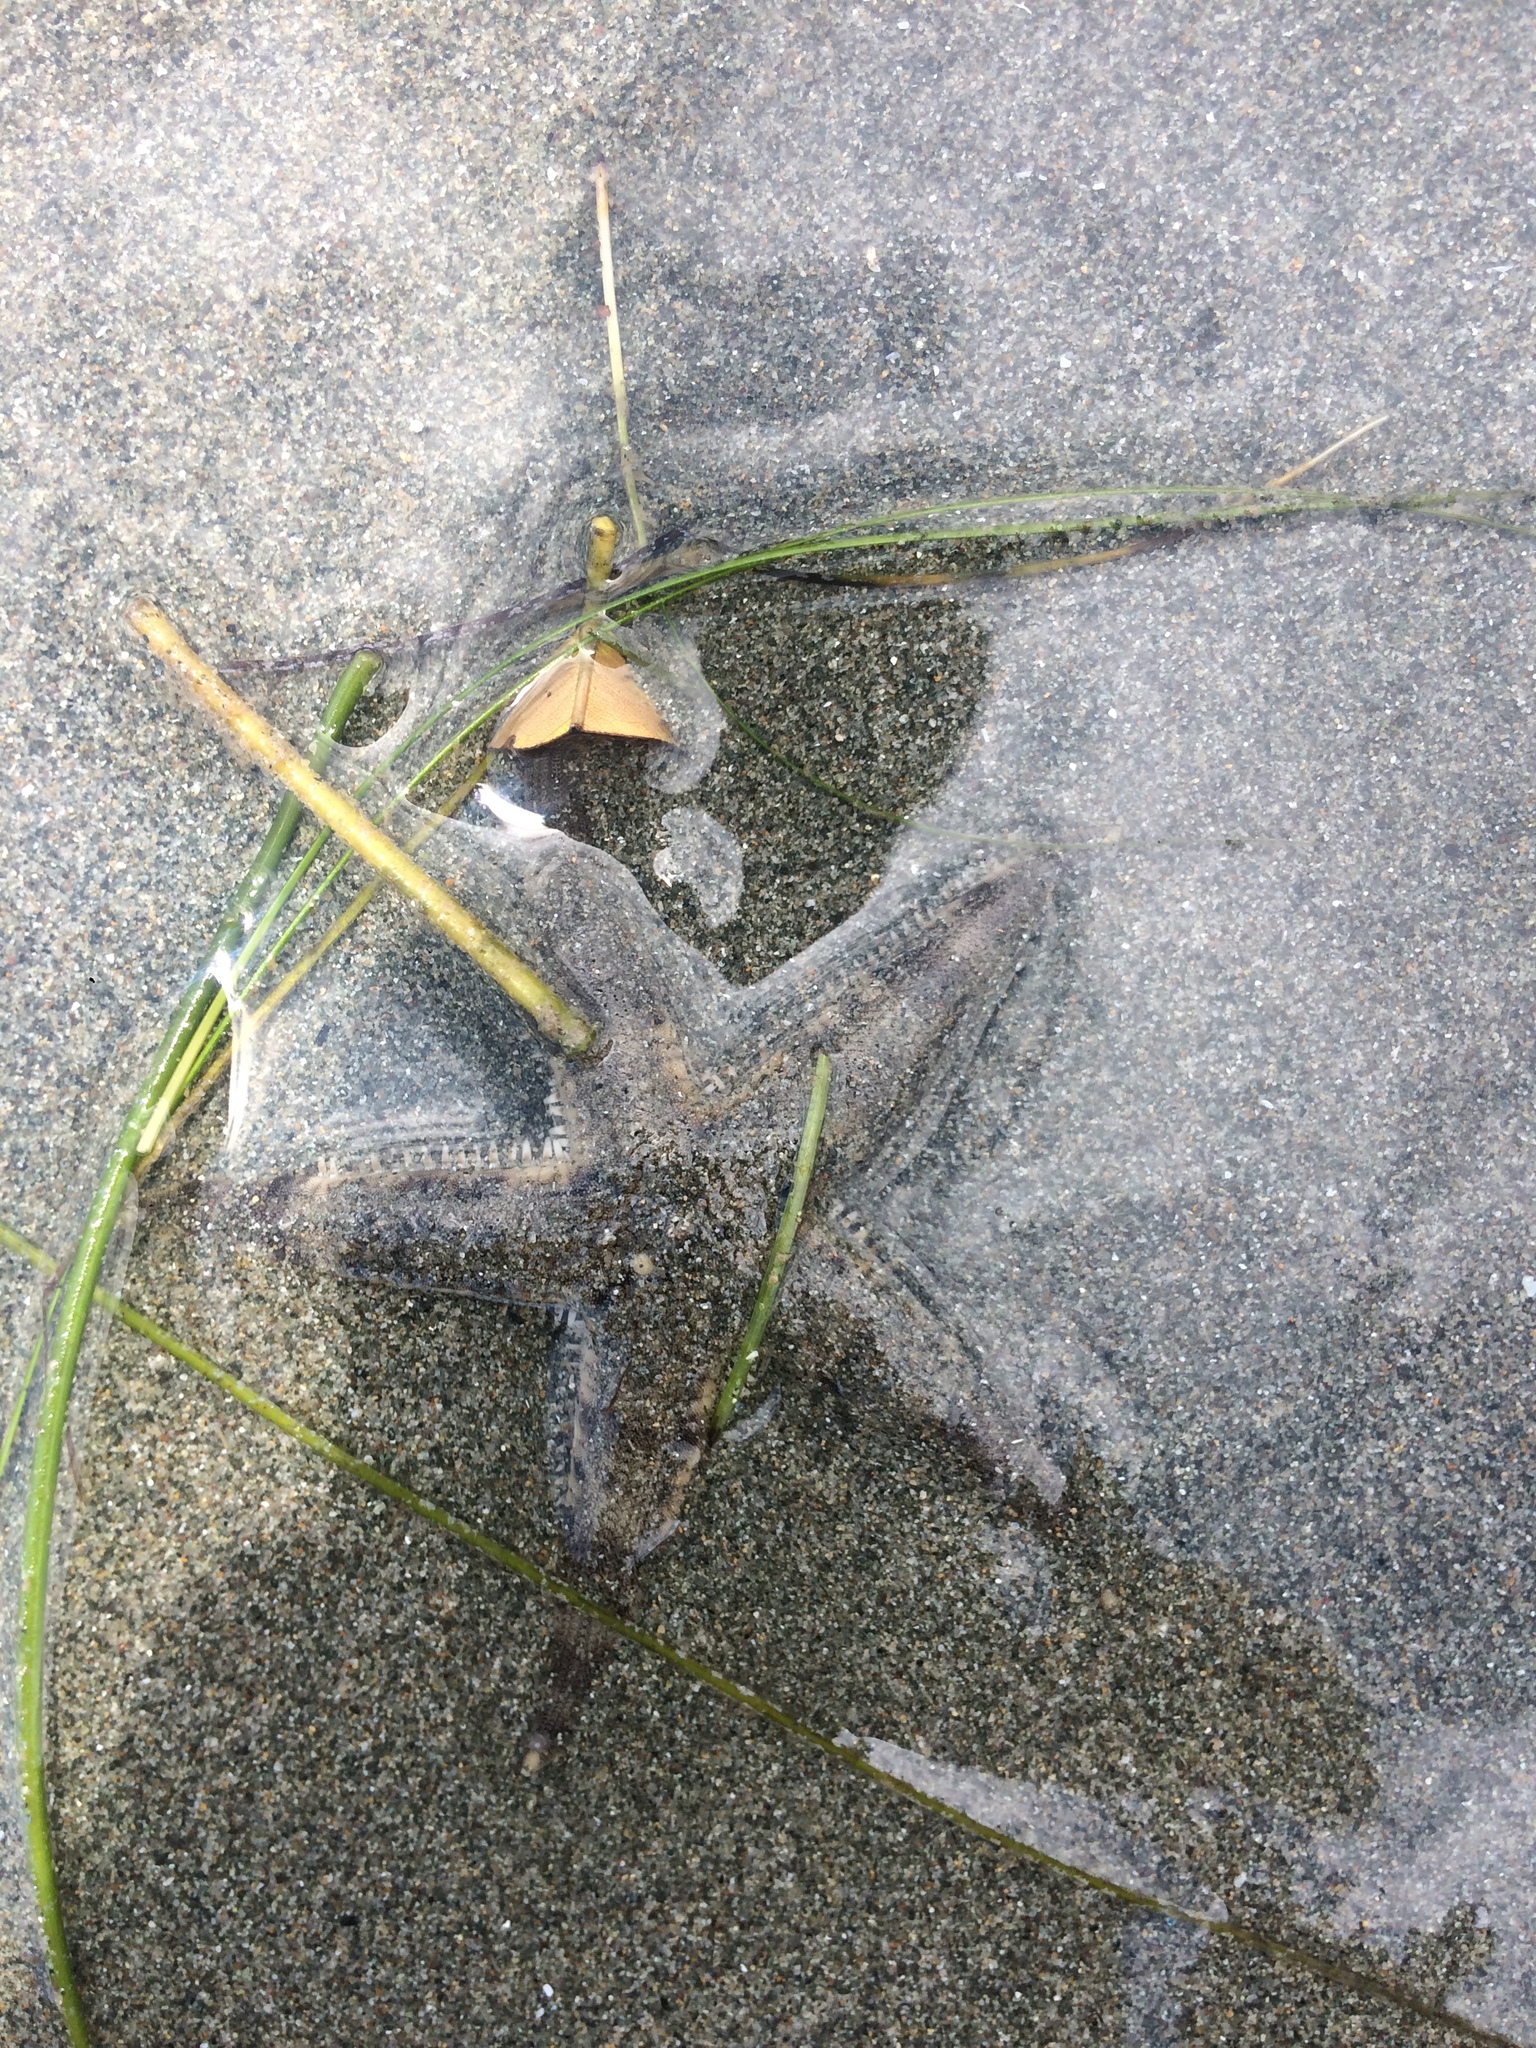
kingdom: Animalia
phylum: Echinodermata
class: Asteroidea
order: Valvatida
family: Archasteridae
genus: Archaster
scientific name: Archaster typicus
